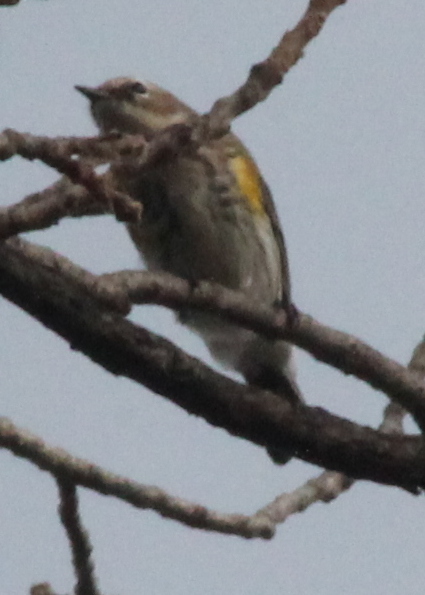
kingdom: Animalia
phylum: Chordata
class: Aves
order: Passeriformes
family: Parulidae
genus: Setophaga
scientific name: Setophaga coronata
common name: Myrtle warbler
